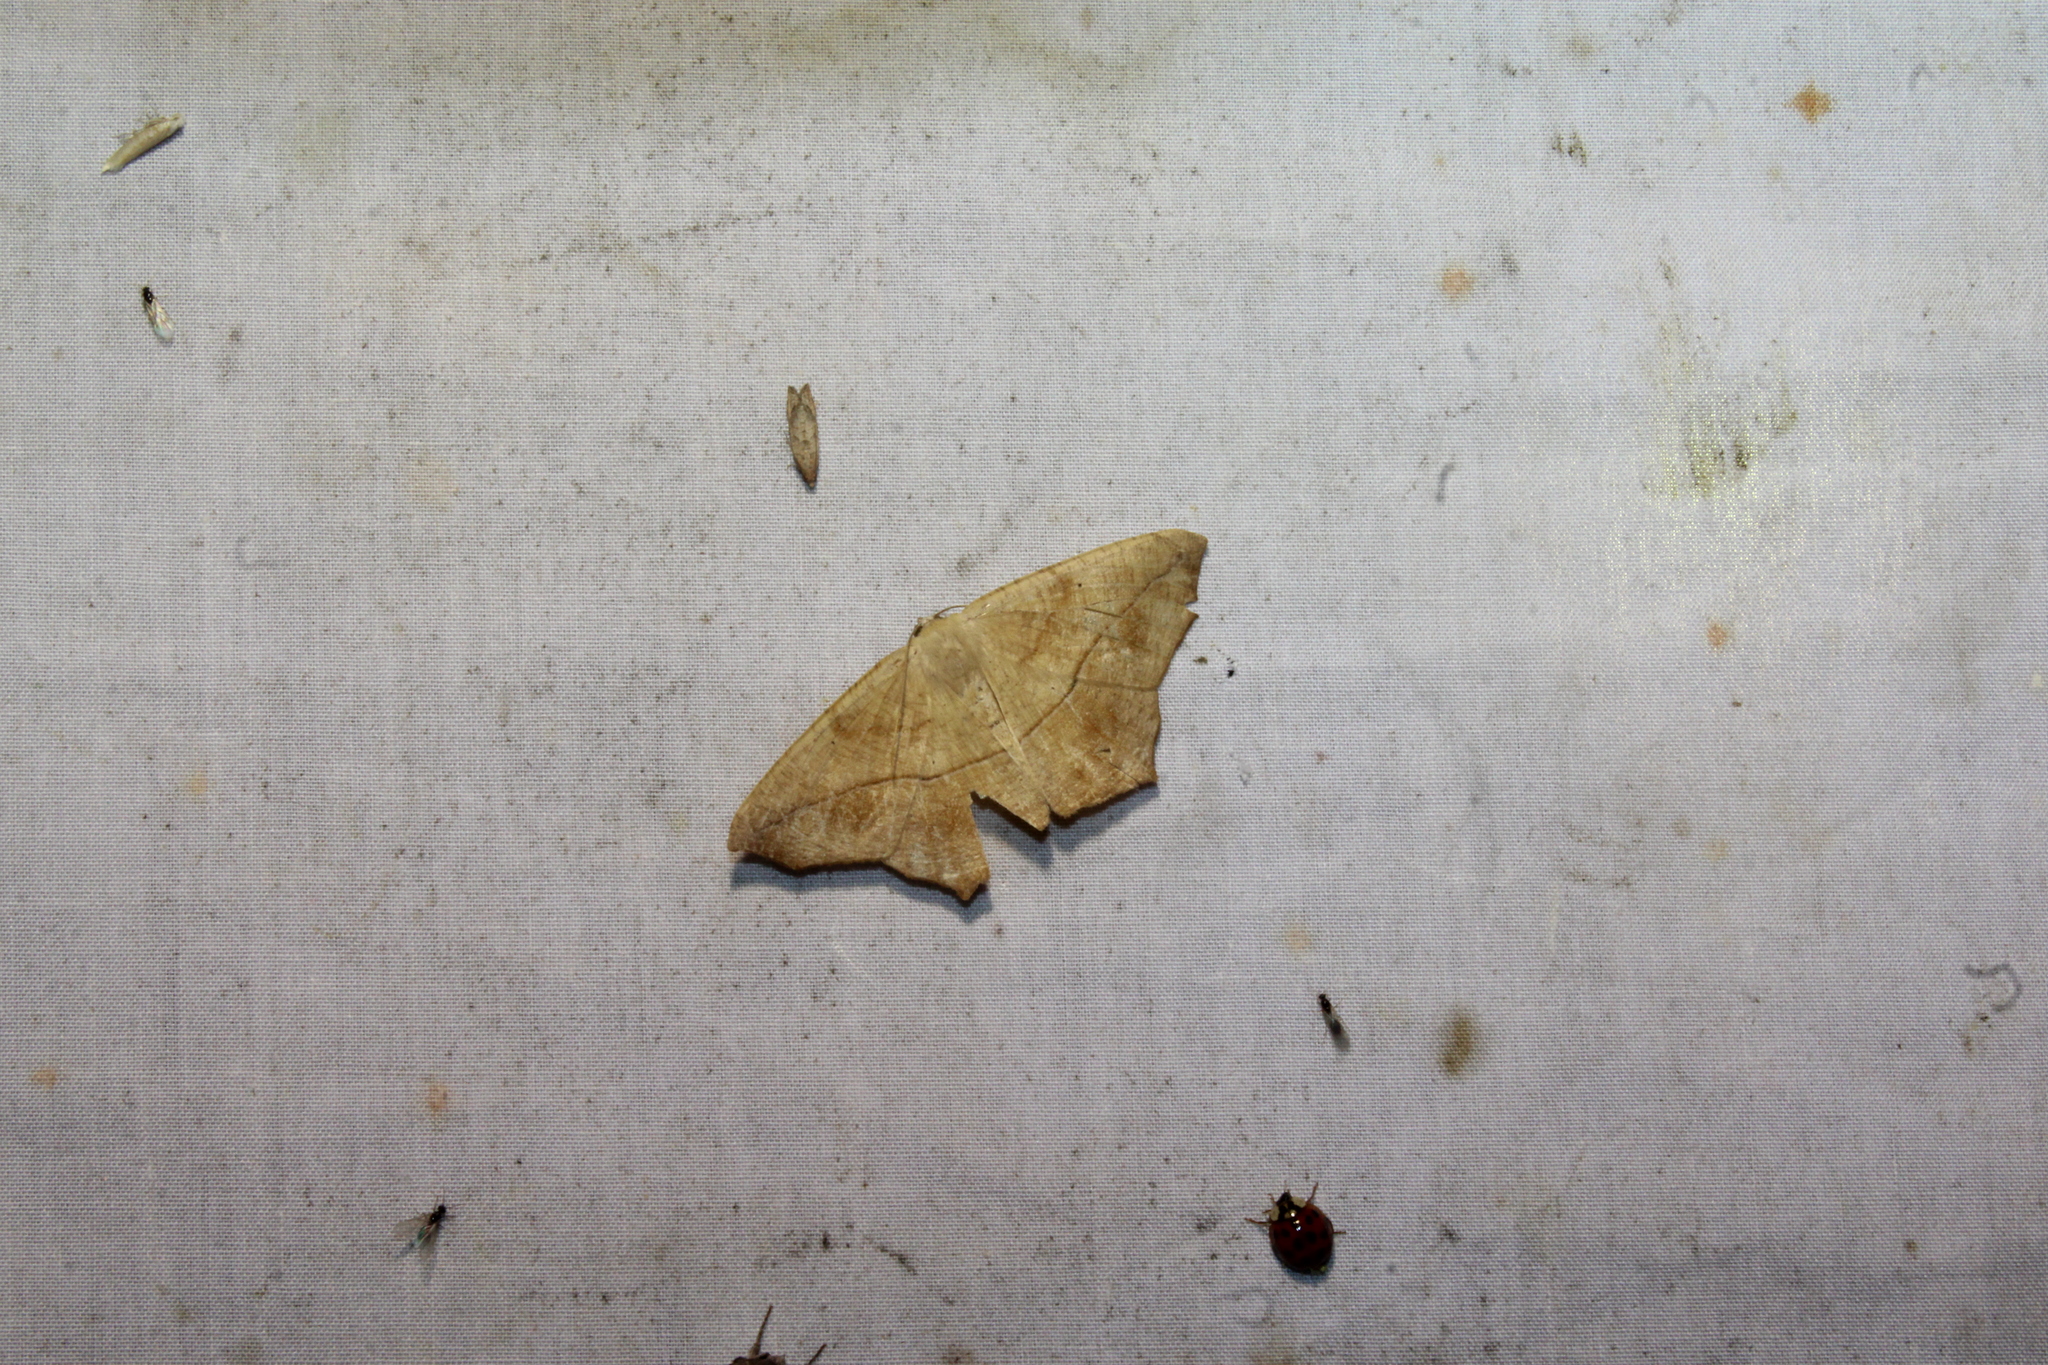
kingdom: Animalia
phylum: Arthropoda
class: Insecta
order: Lepidoptera
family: Geometridae
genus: Prochoerodes
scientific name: Prochoerodes lineola
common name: Large maple spanworm
